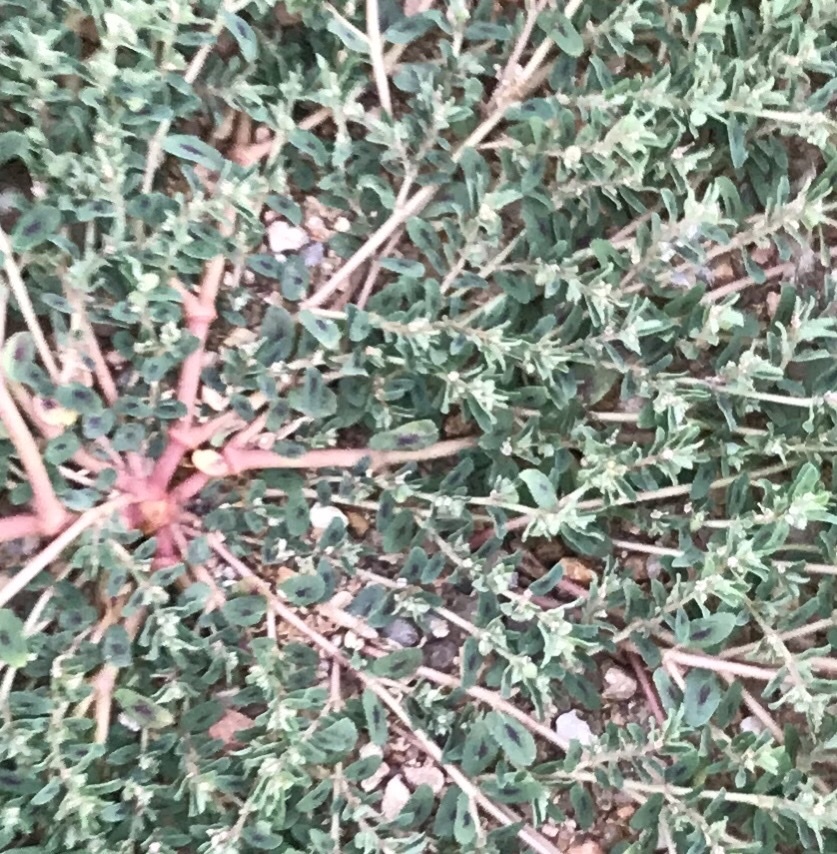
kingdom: Plantae
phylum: Tracheophyta
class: Magnoliopsida
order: Malpighiales
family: Euphorbiaceae
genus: Euphorbia
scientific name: Euphorbia maculata
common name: Spotted spurge
